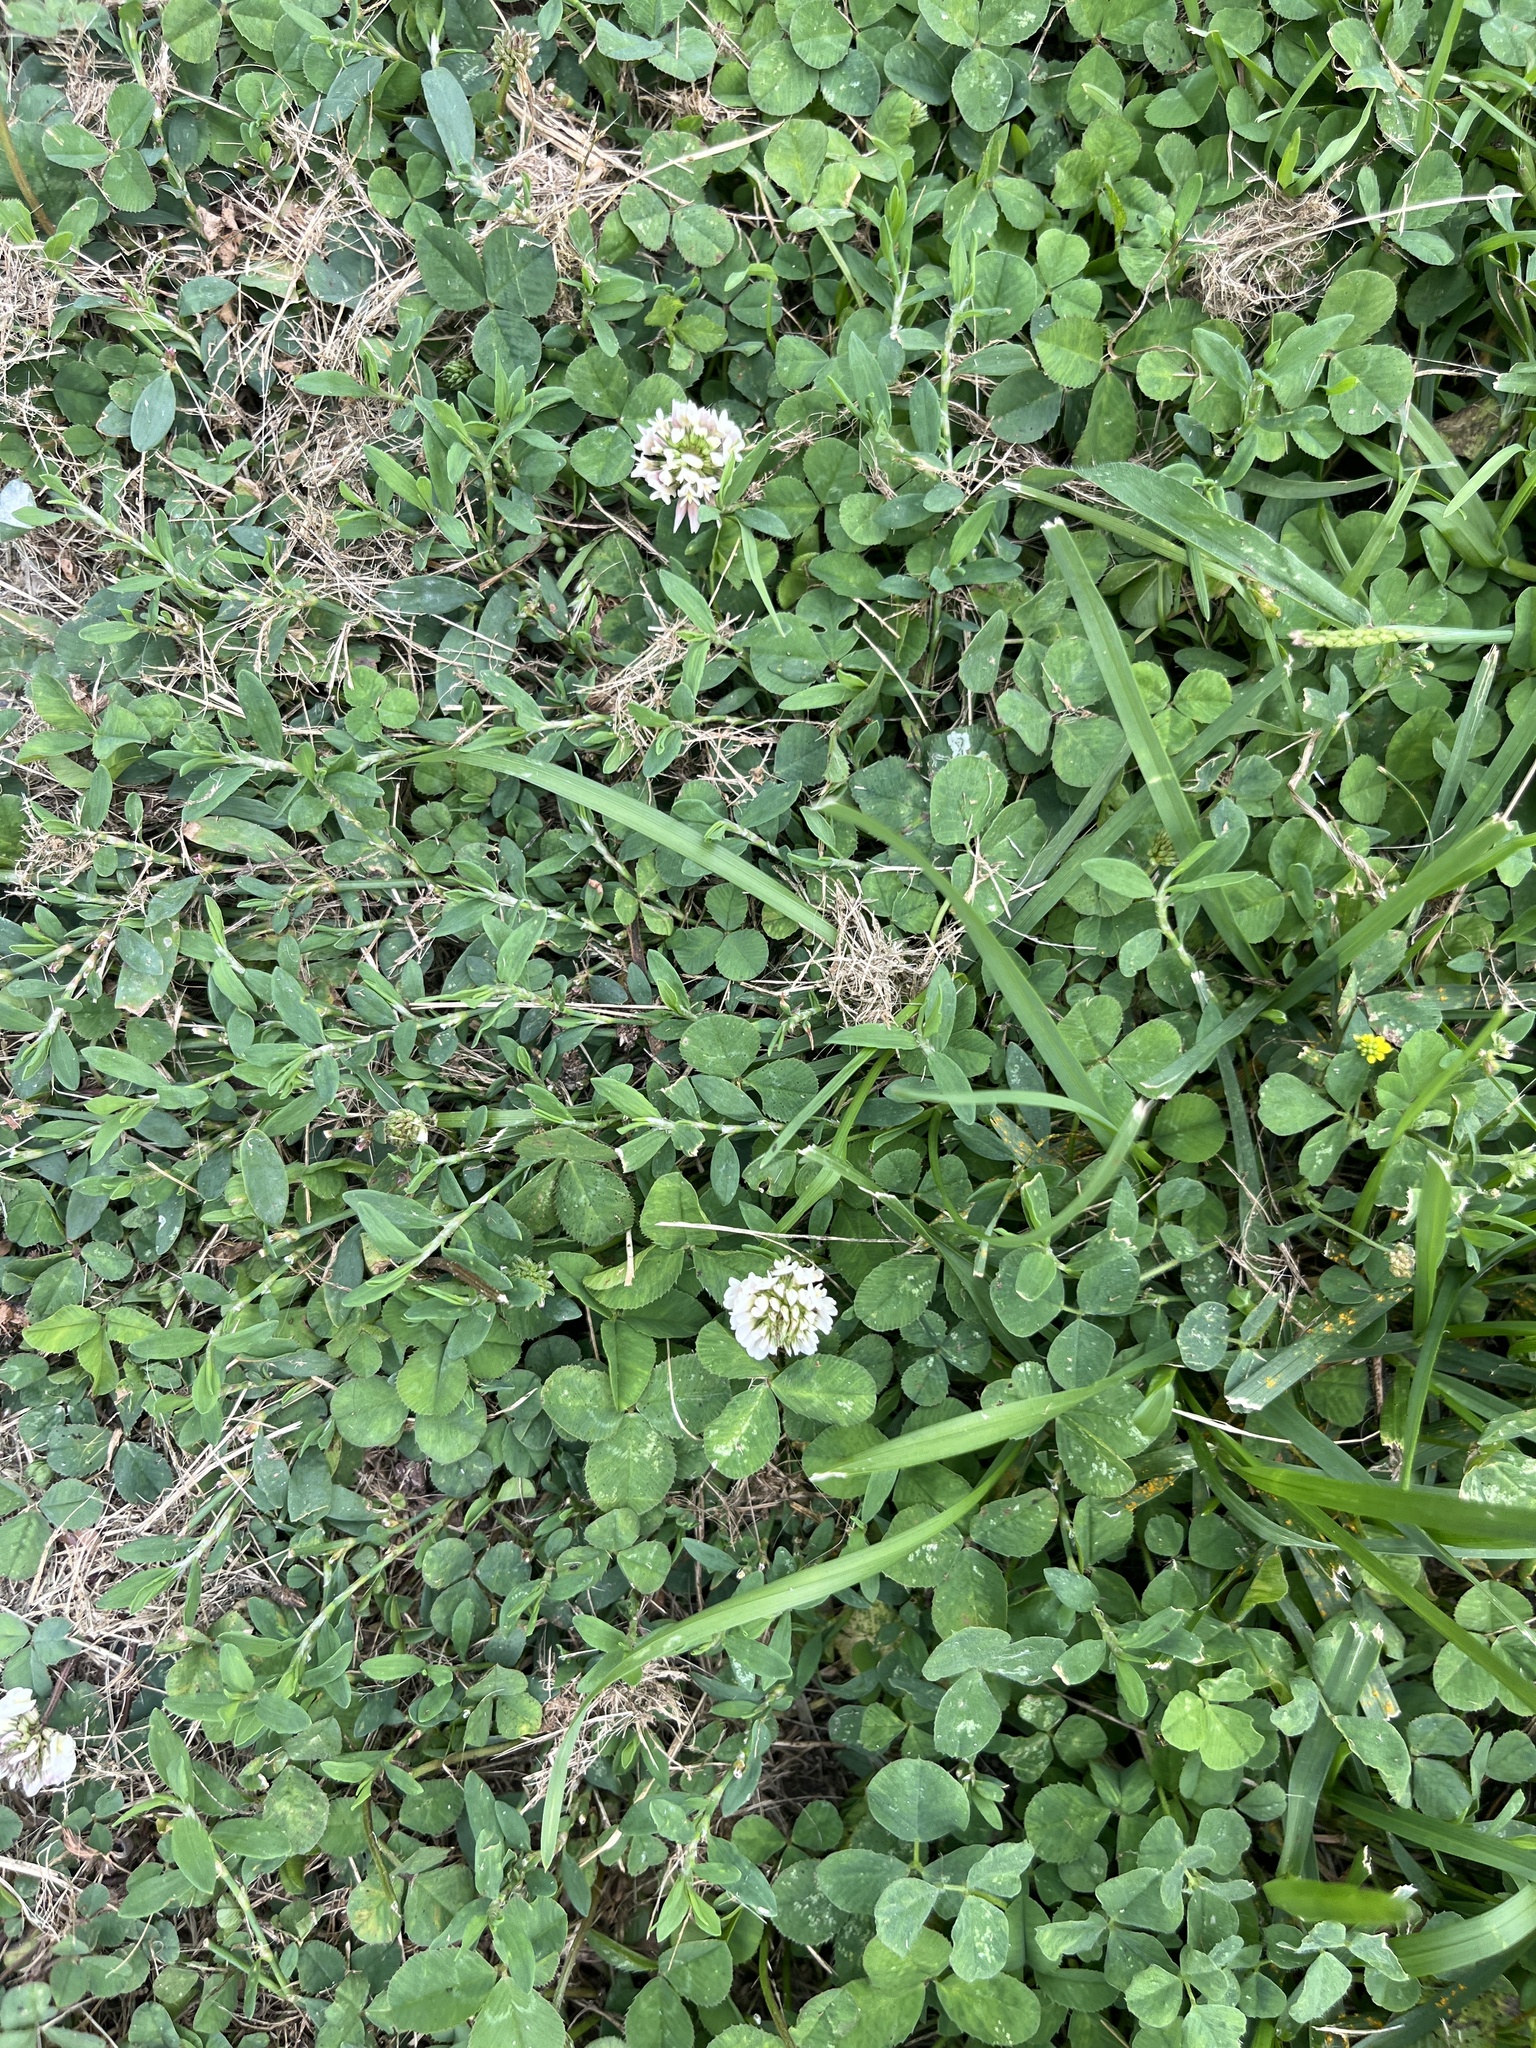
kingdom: Plantae
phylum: Tracheophyta
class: Magnoliopsida
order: Fabales
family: Fabaceae
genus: Trifolium
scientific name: Trifolium repens
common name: White clover
